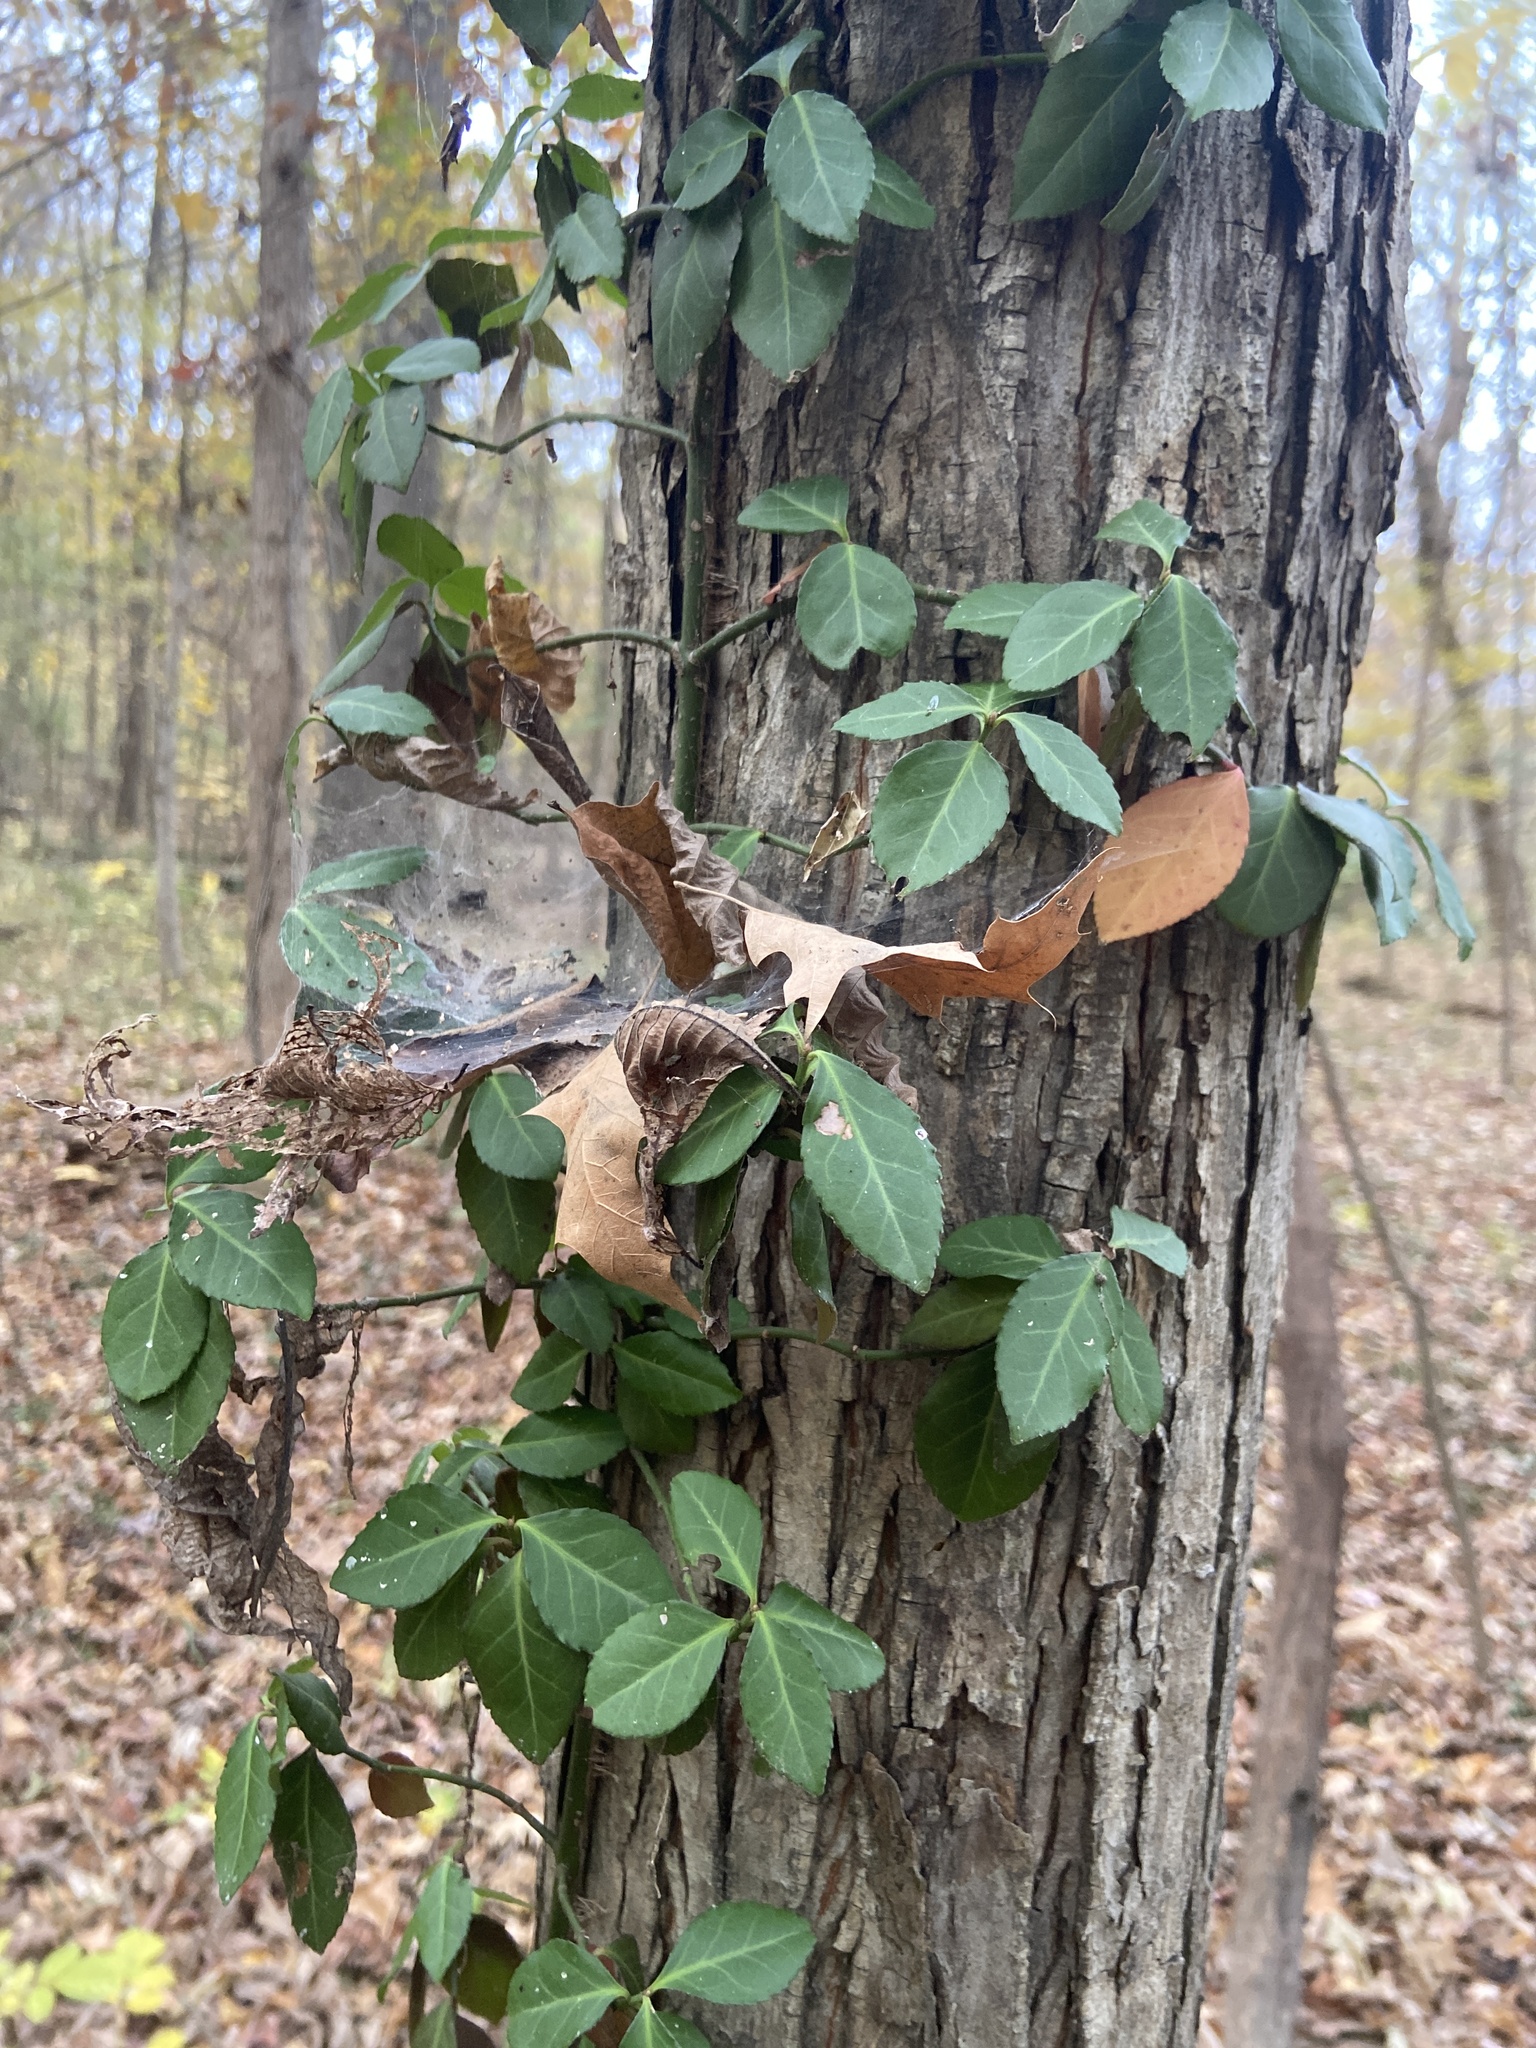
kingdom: Plantae
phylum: Tracheophyta
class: Magnoliopsida
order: Celastrales
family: Celastraceae
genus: Euonymus
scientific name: Euonymus fortunei
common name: Climbing euonymus
